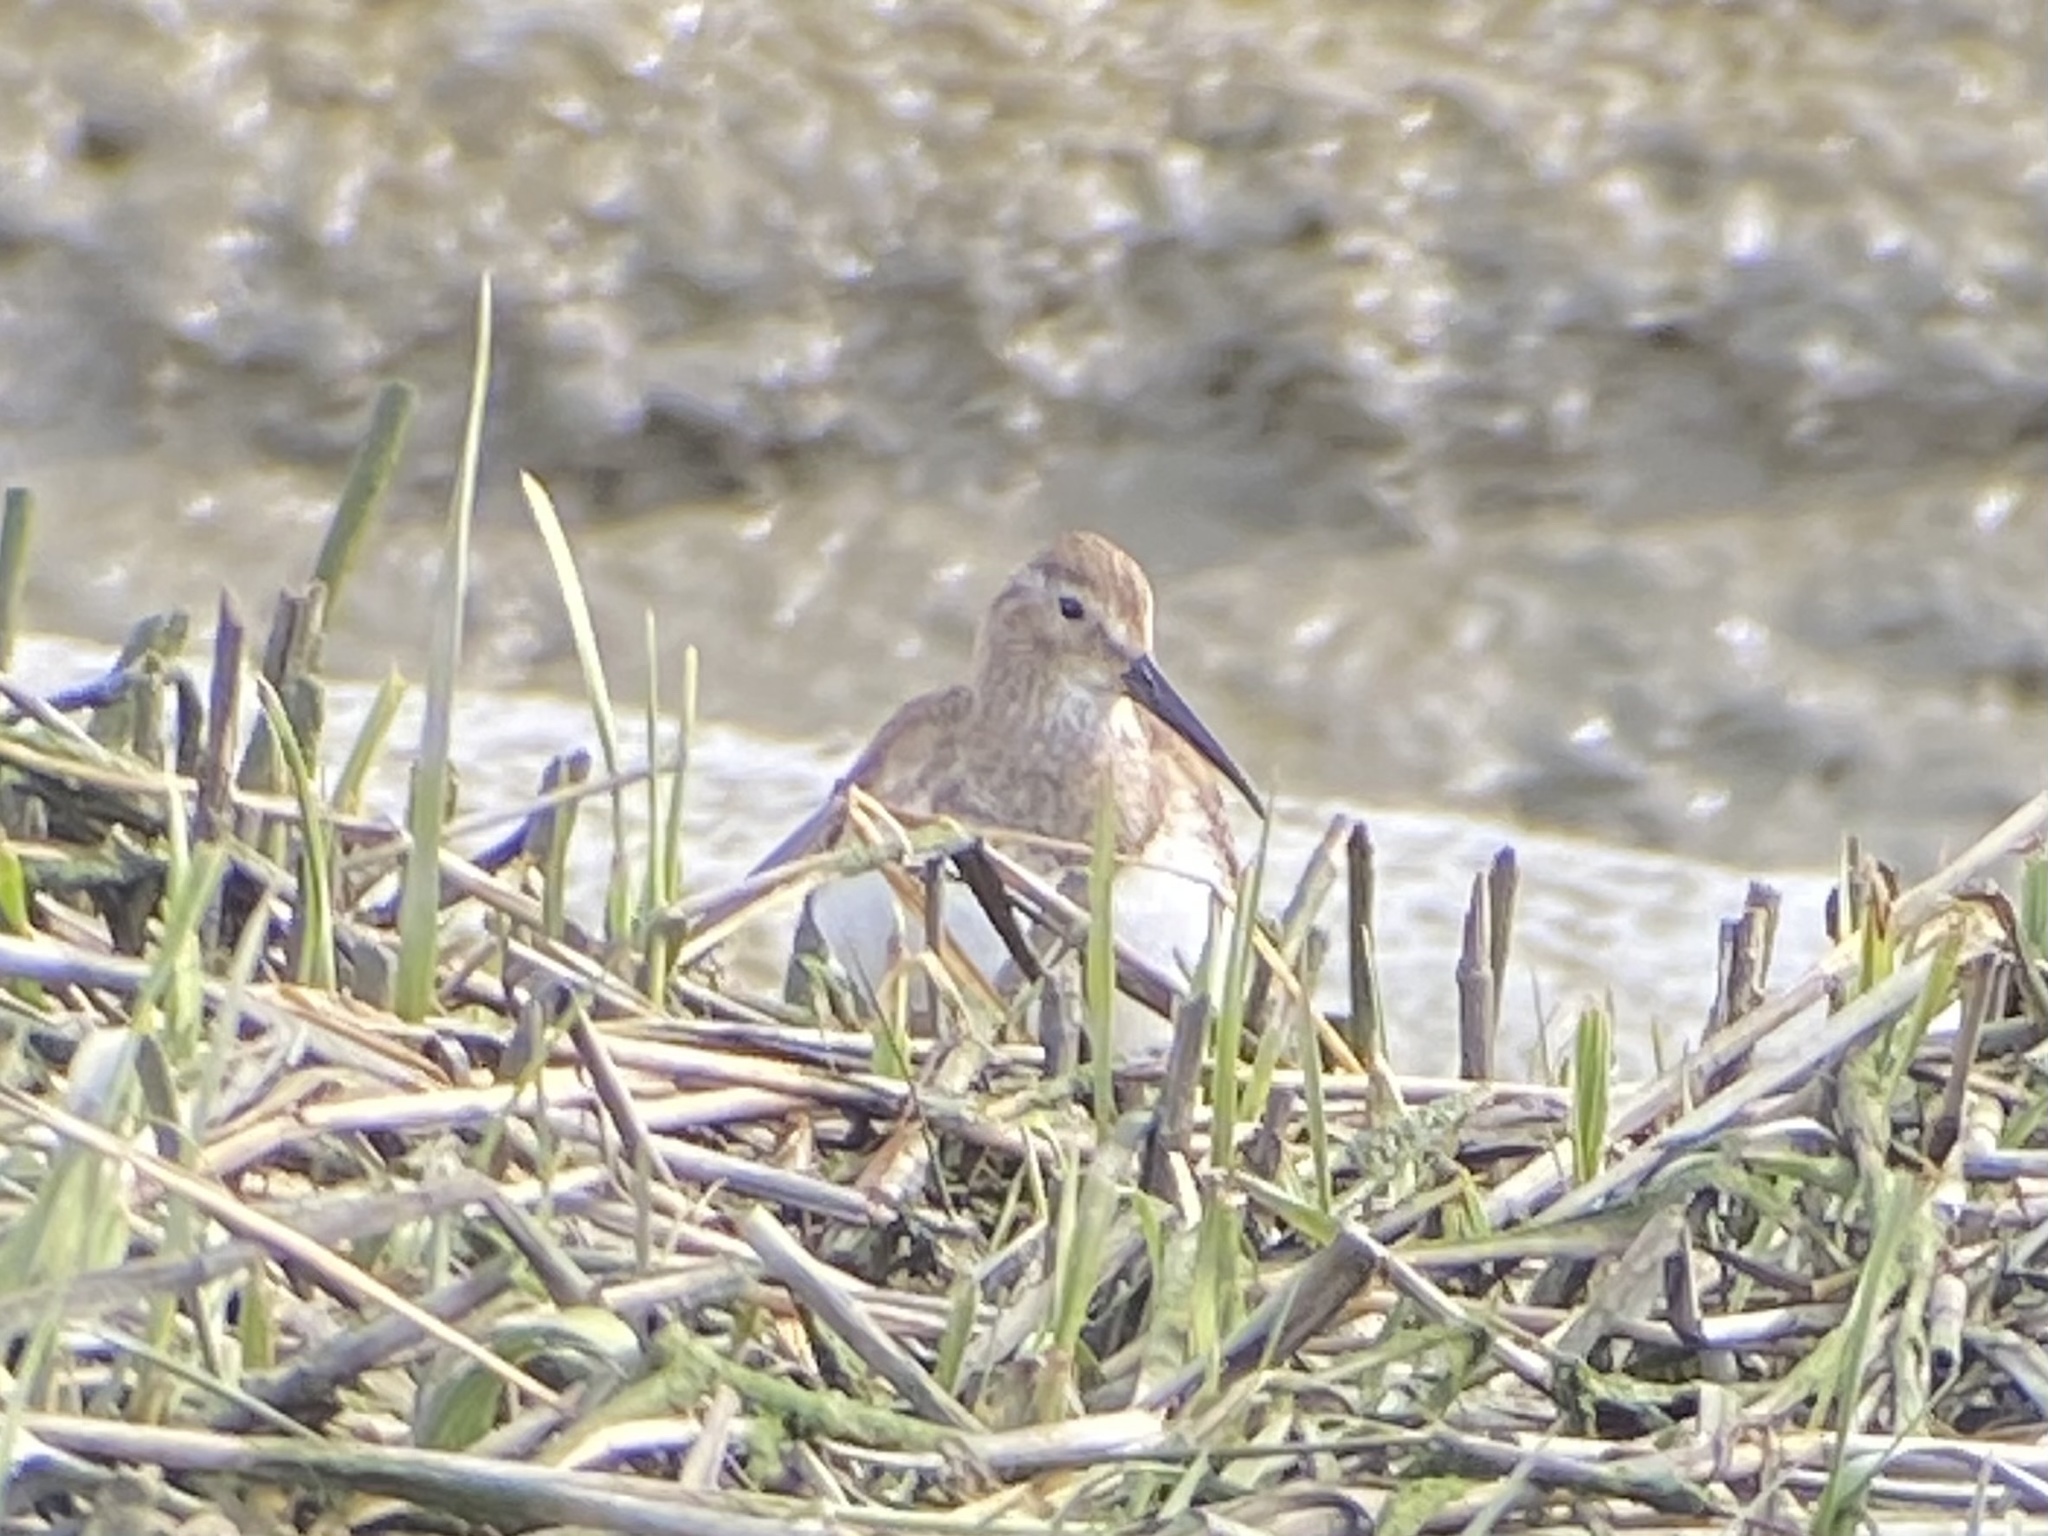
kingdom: Animalia
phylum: Chordata
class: Aves
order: Charadriiformes
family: Scolopacidae
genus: Calidris
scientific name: Calidris alpina
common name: Dunlin
